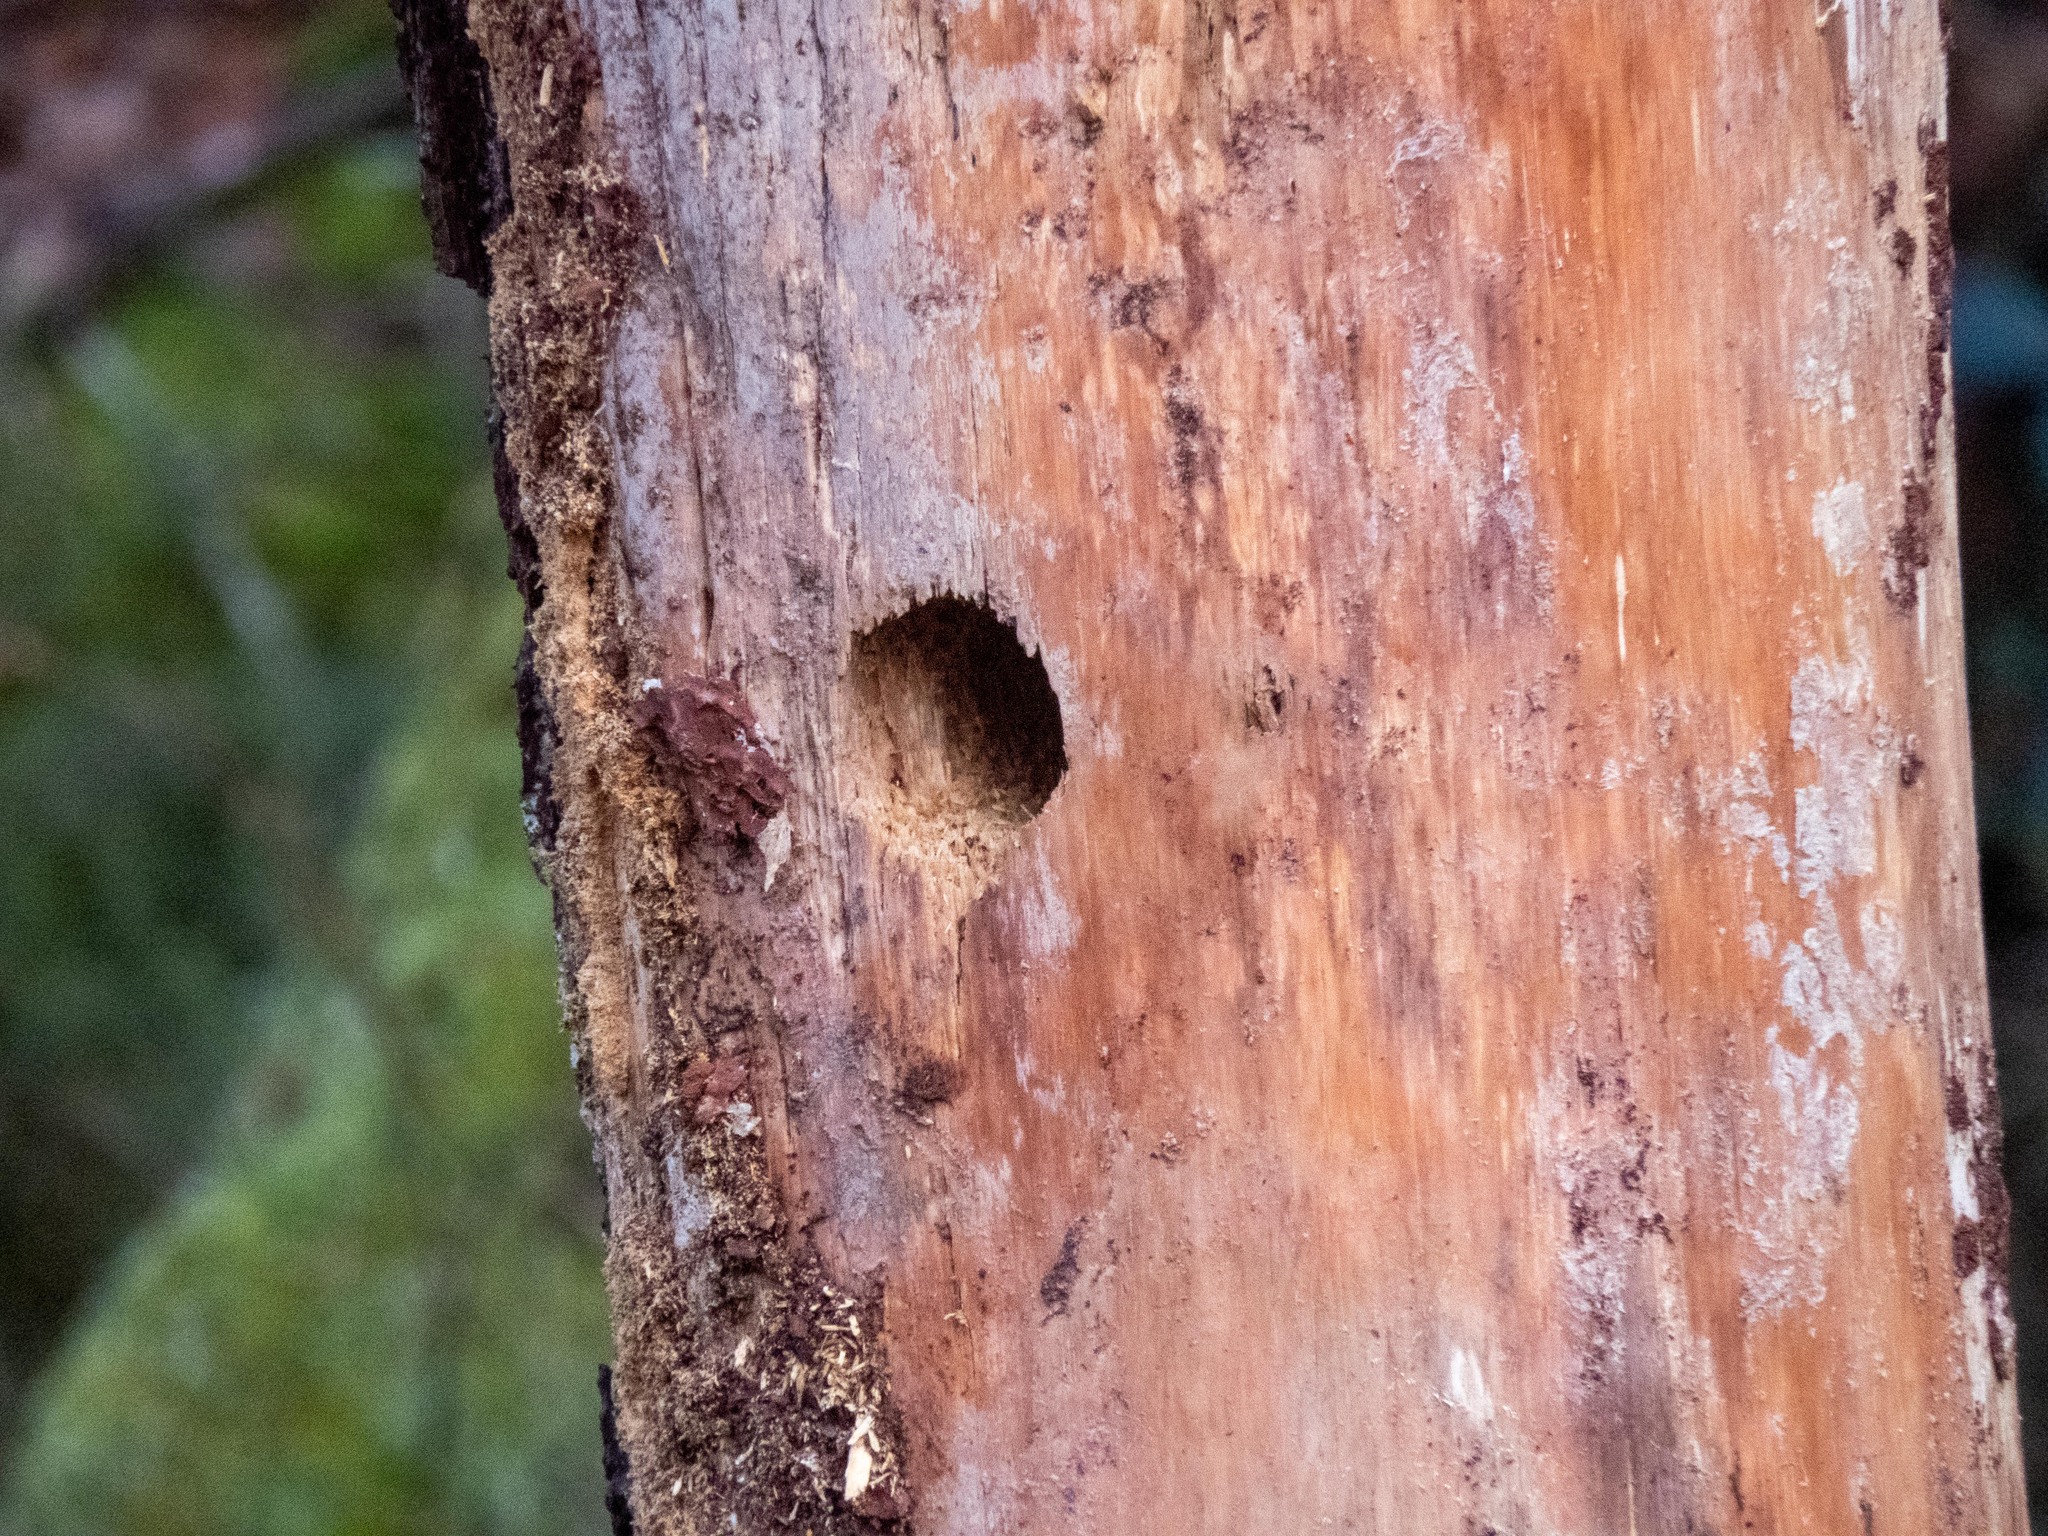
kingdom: Animalia
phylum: Chordata
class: Aves
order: Piciformes
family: Picidae
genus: Picus
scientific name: Picus sharpei
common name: Iberian green woodpecker
